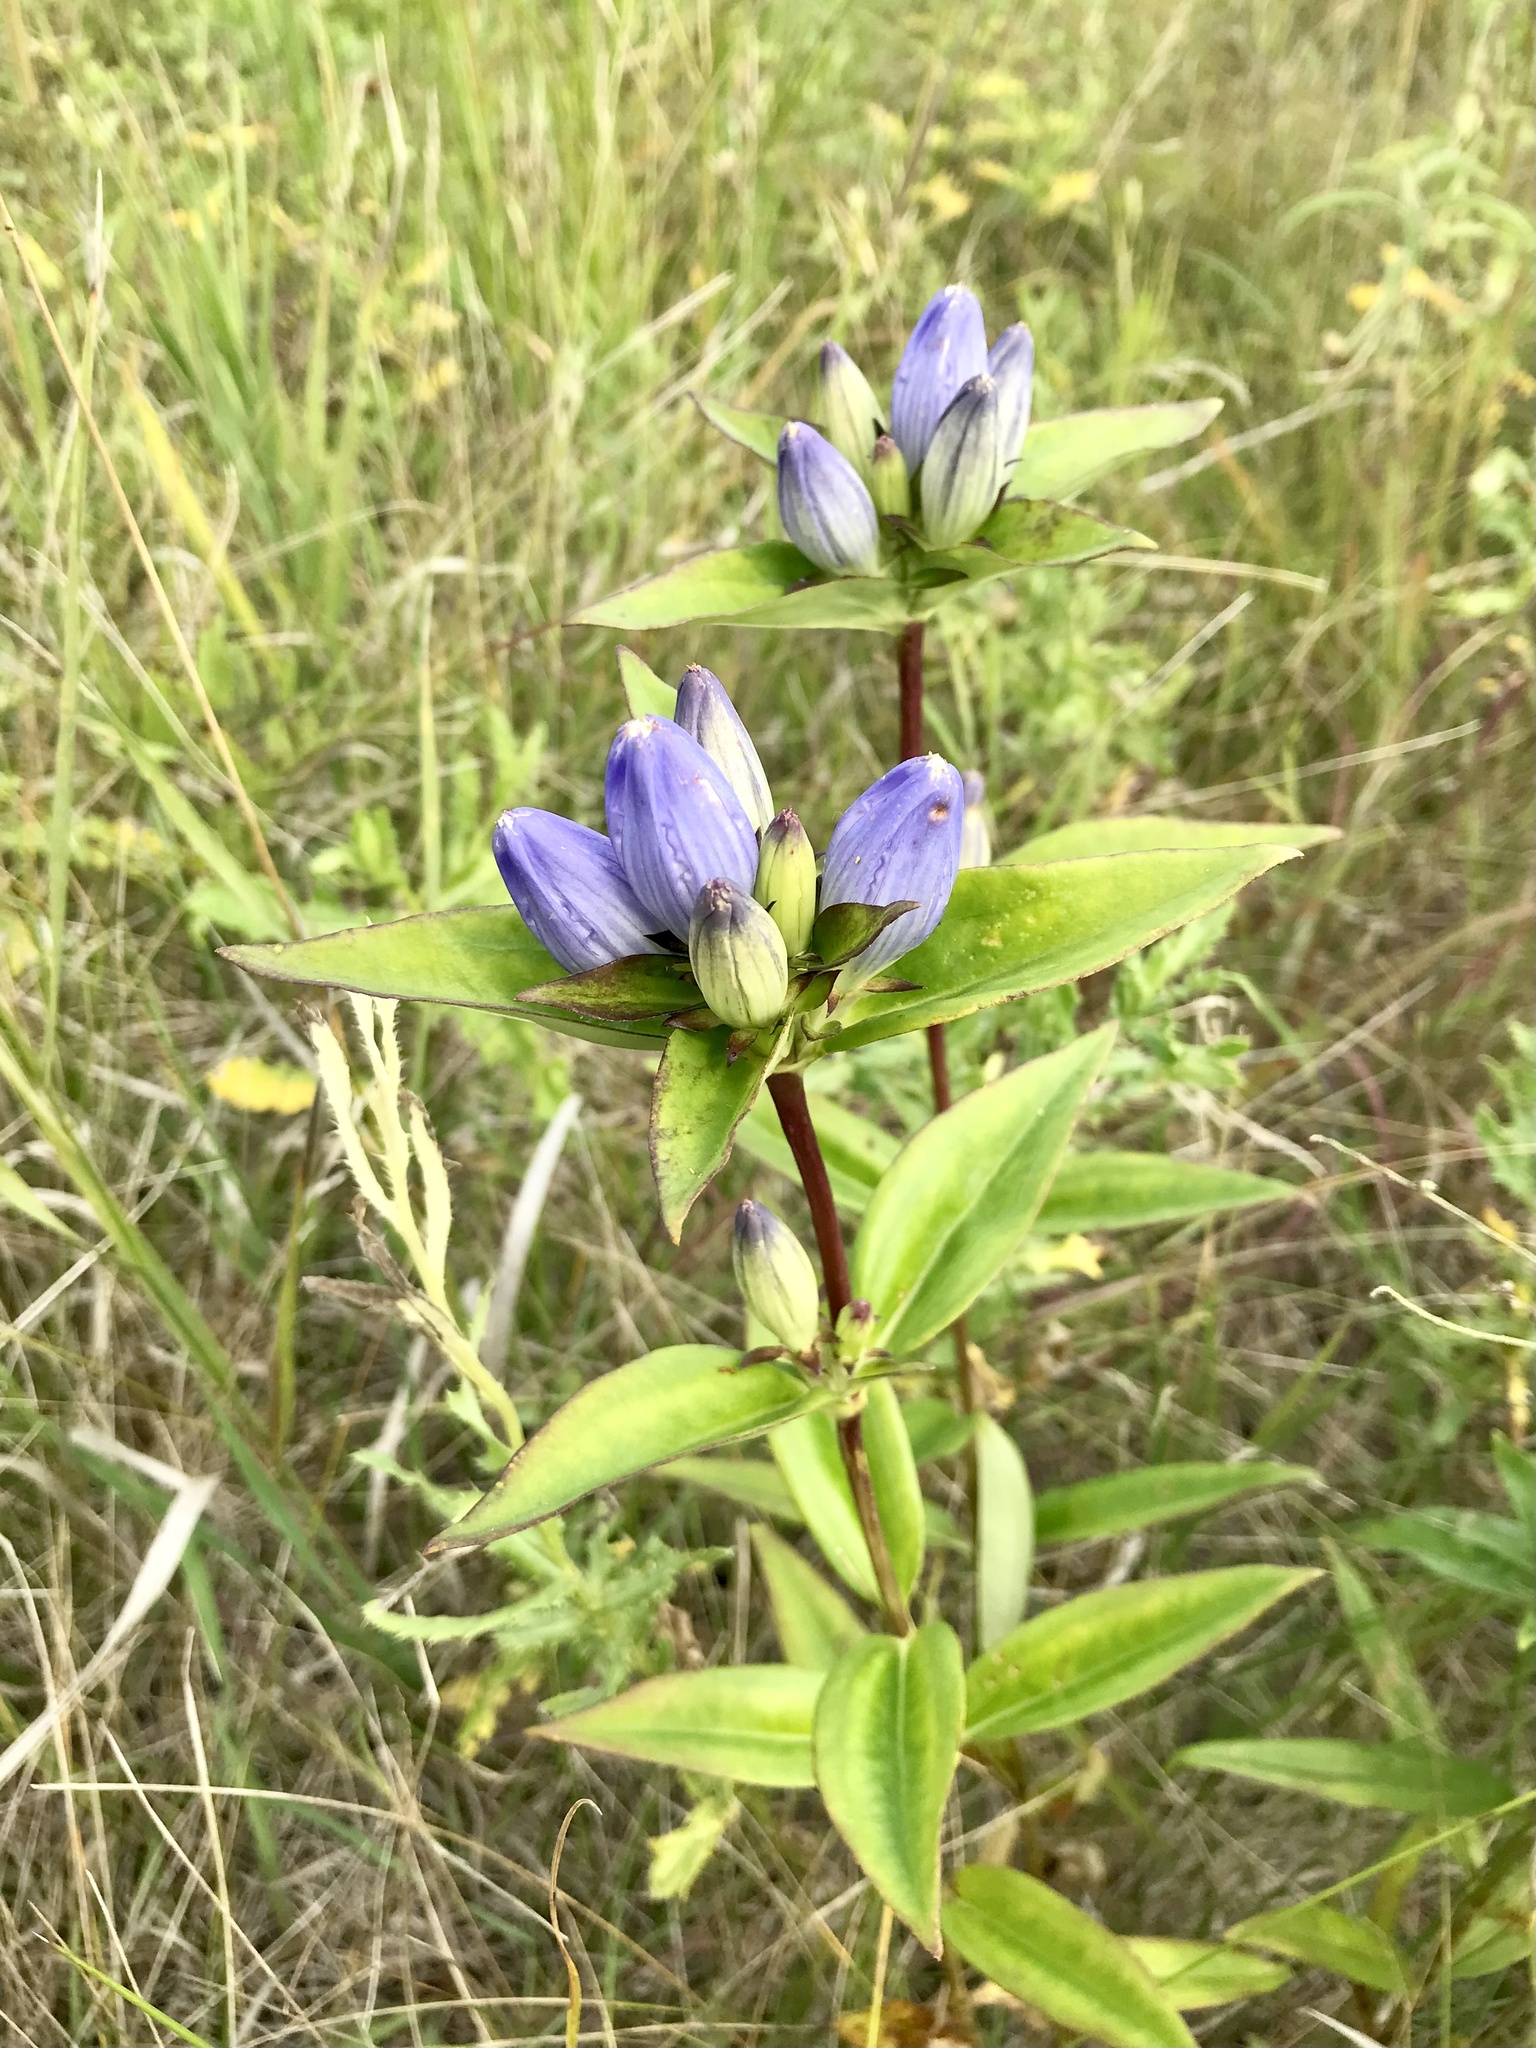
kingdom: Plantae
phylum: Tracheophyta
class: Magnoliopsida
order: Gentianales
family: Gentianaceae
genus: Gentiana
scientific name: Gentiana andrewsii
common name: Bottle gentian
